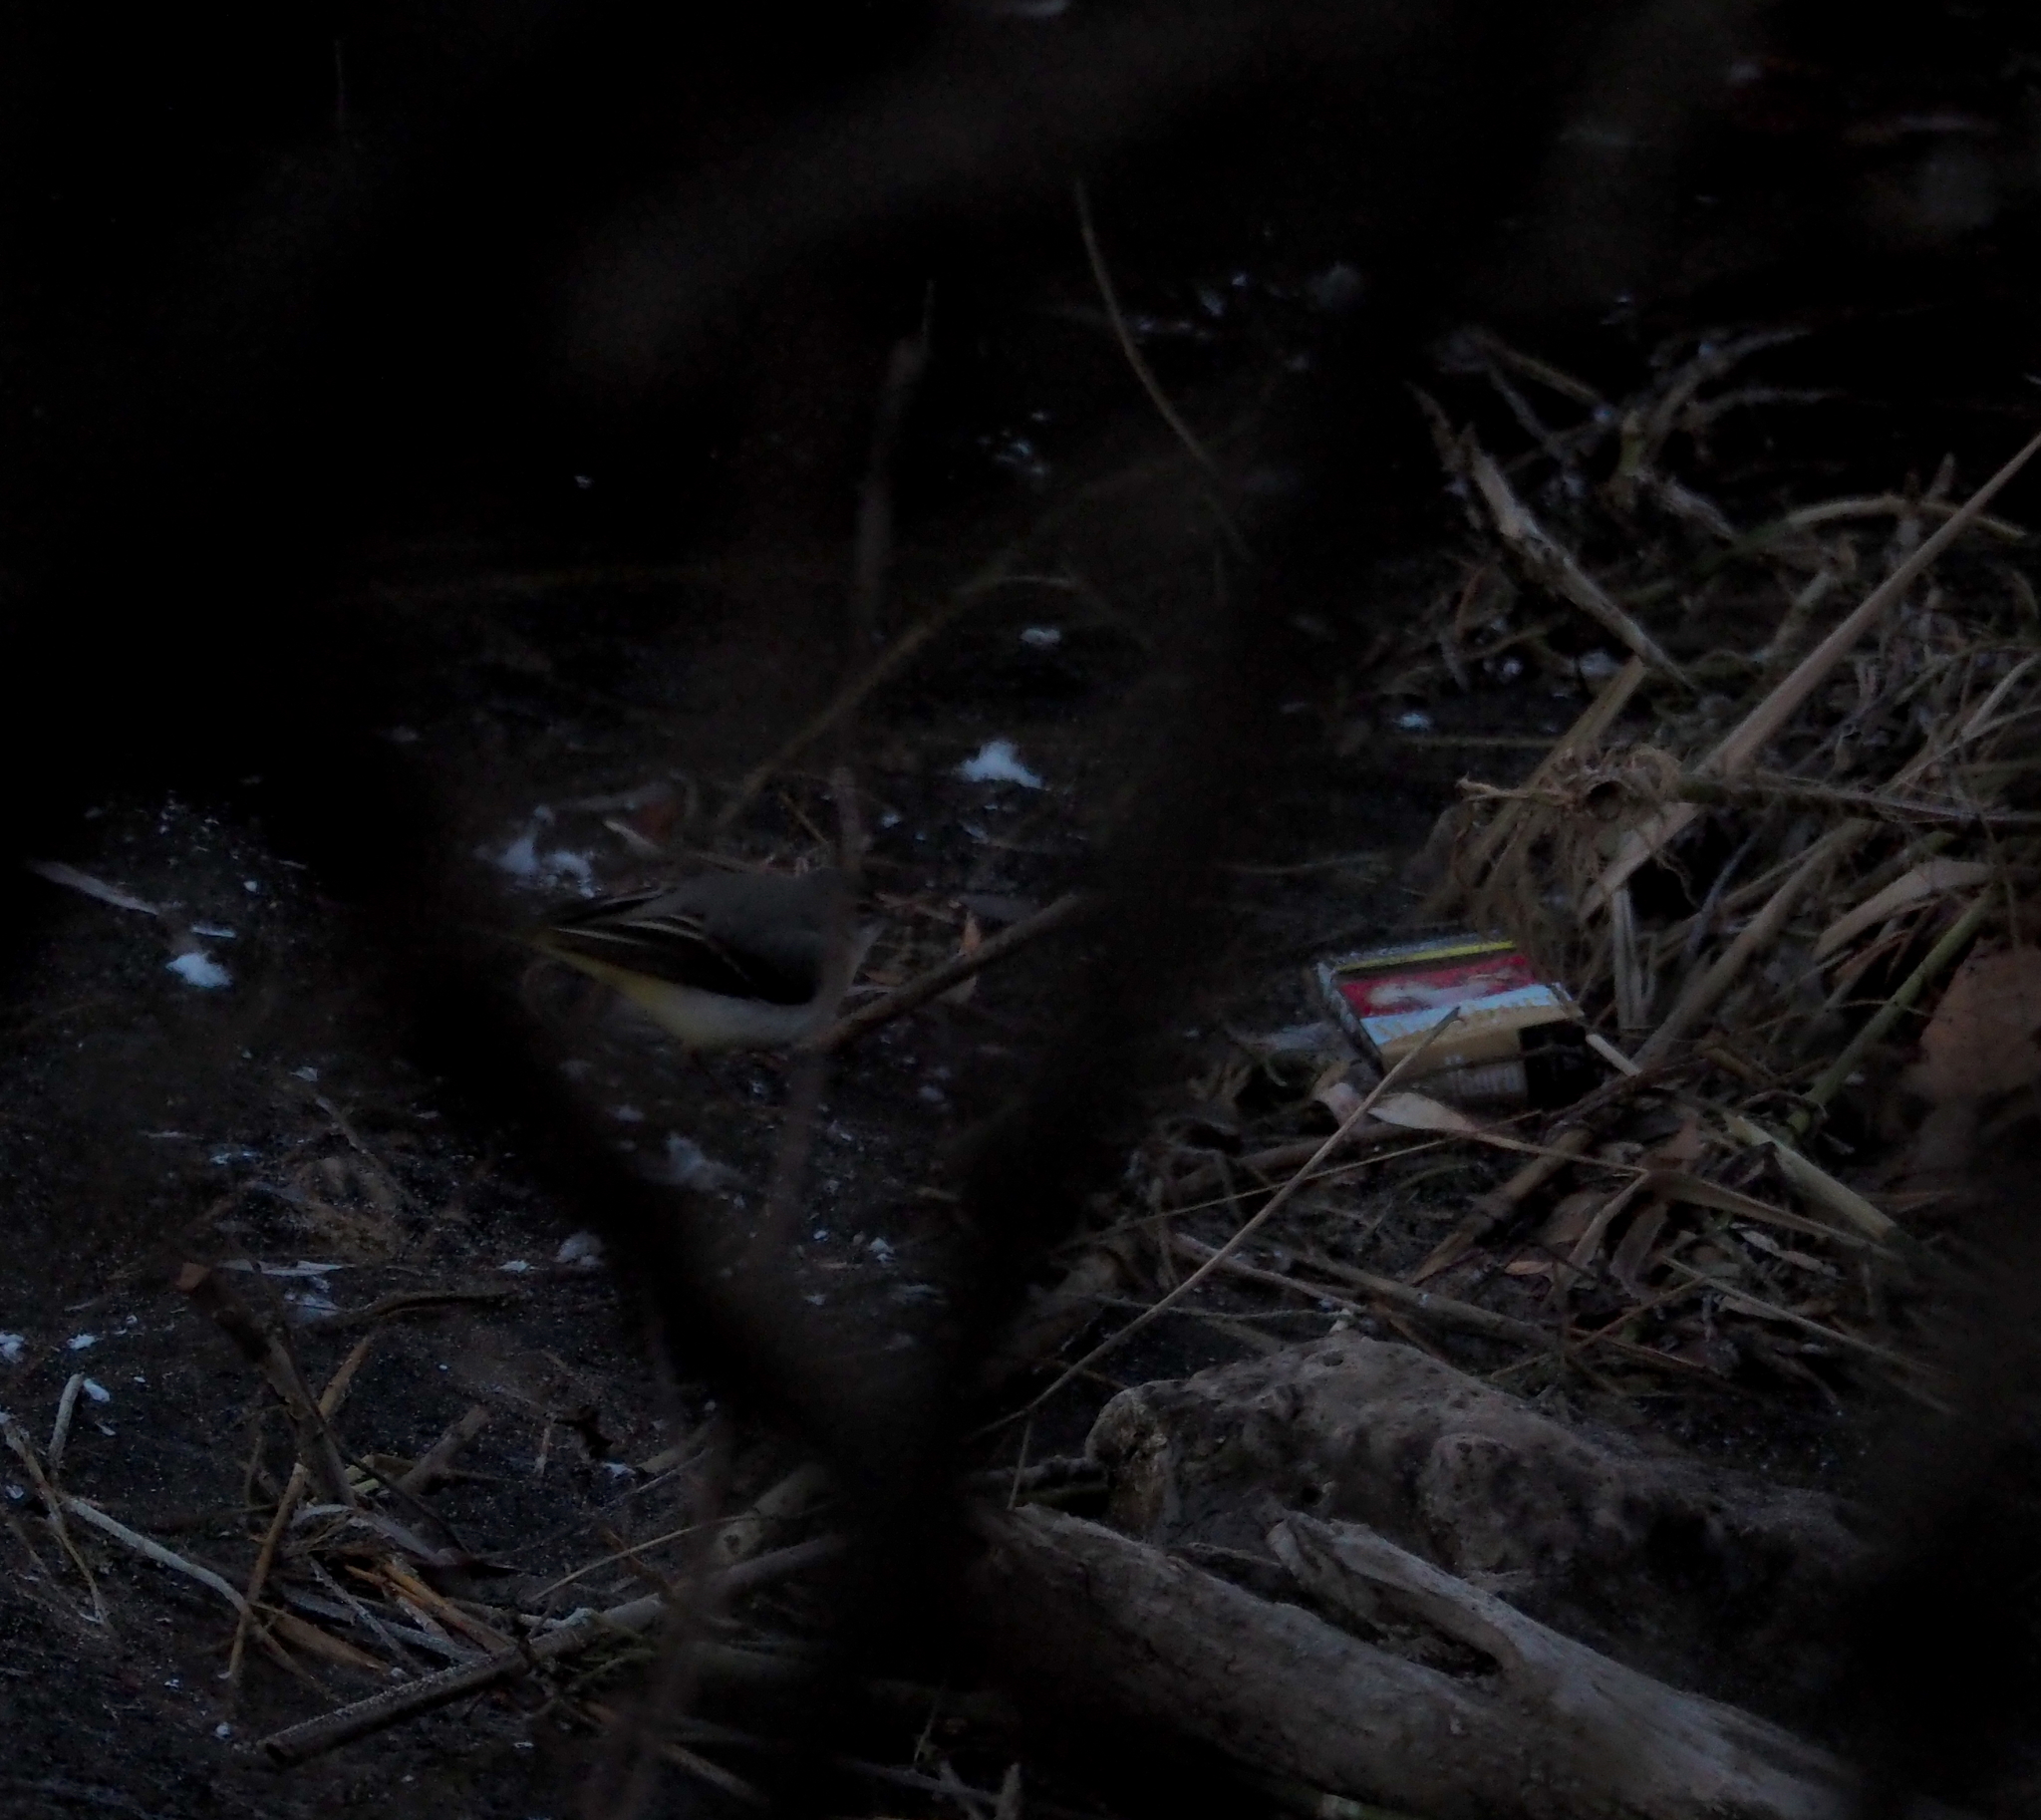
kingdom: Animalia
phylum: Chordata
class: Aves
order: Passeriformes
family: Motacillidae
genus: Motacilla
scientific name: Motacilla cinerea
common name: Grey wagtail
